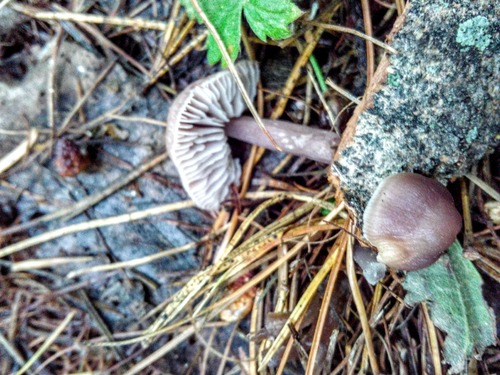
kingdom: Fungi
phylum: Basidiomycota
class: Agaricomycetes
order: Agaricales
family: Mycenaceae
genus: Mycena
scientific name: Mycena
